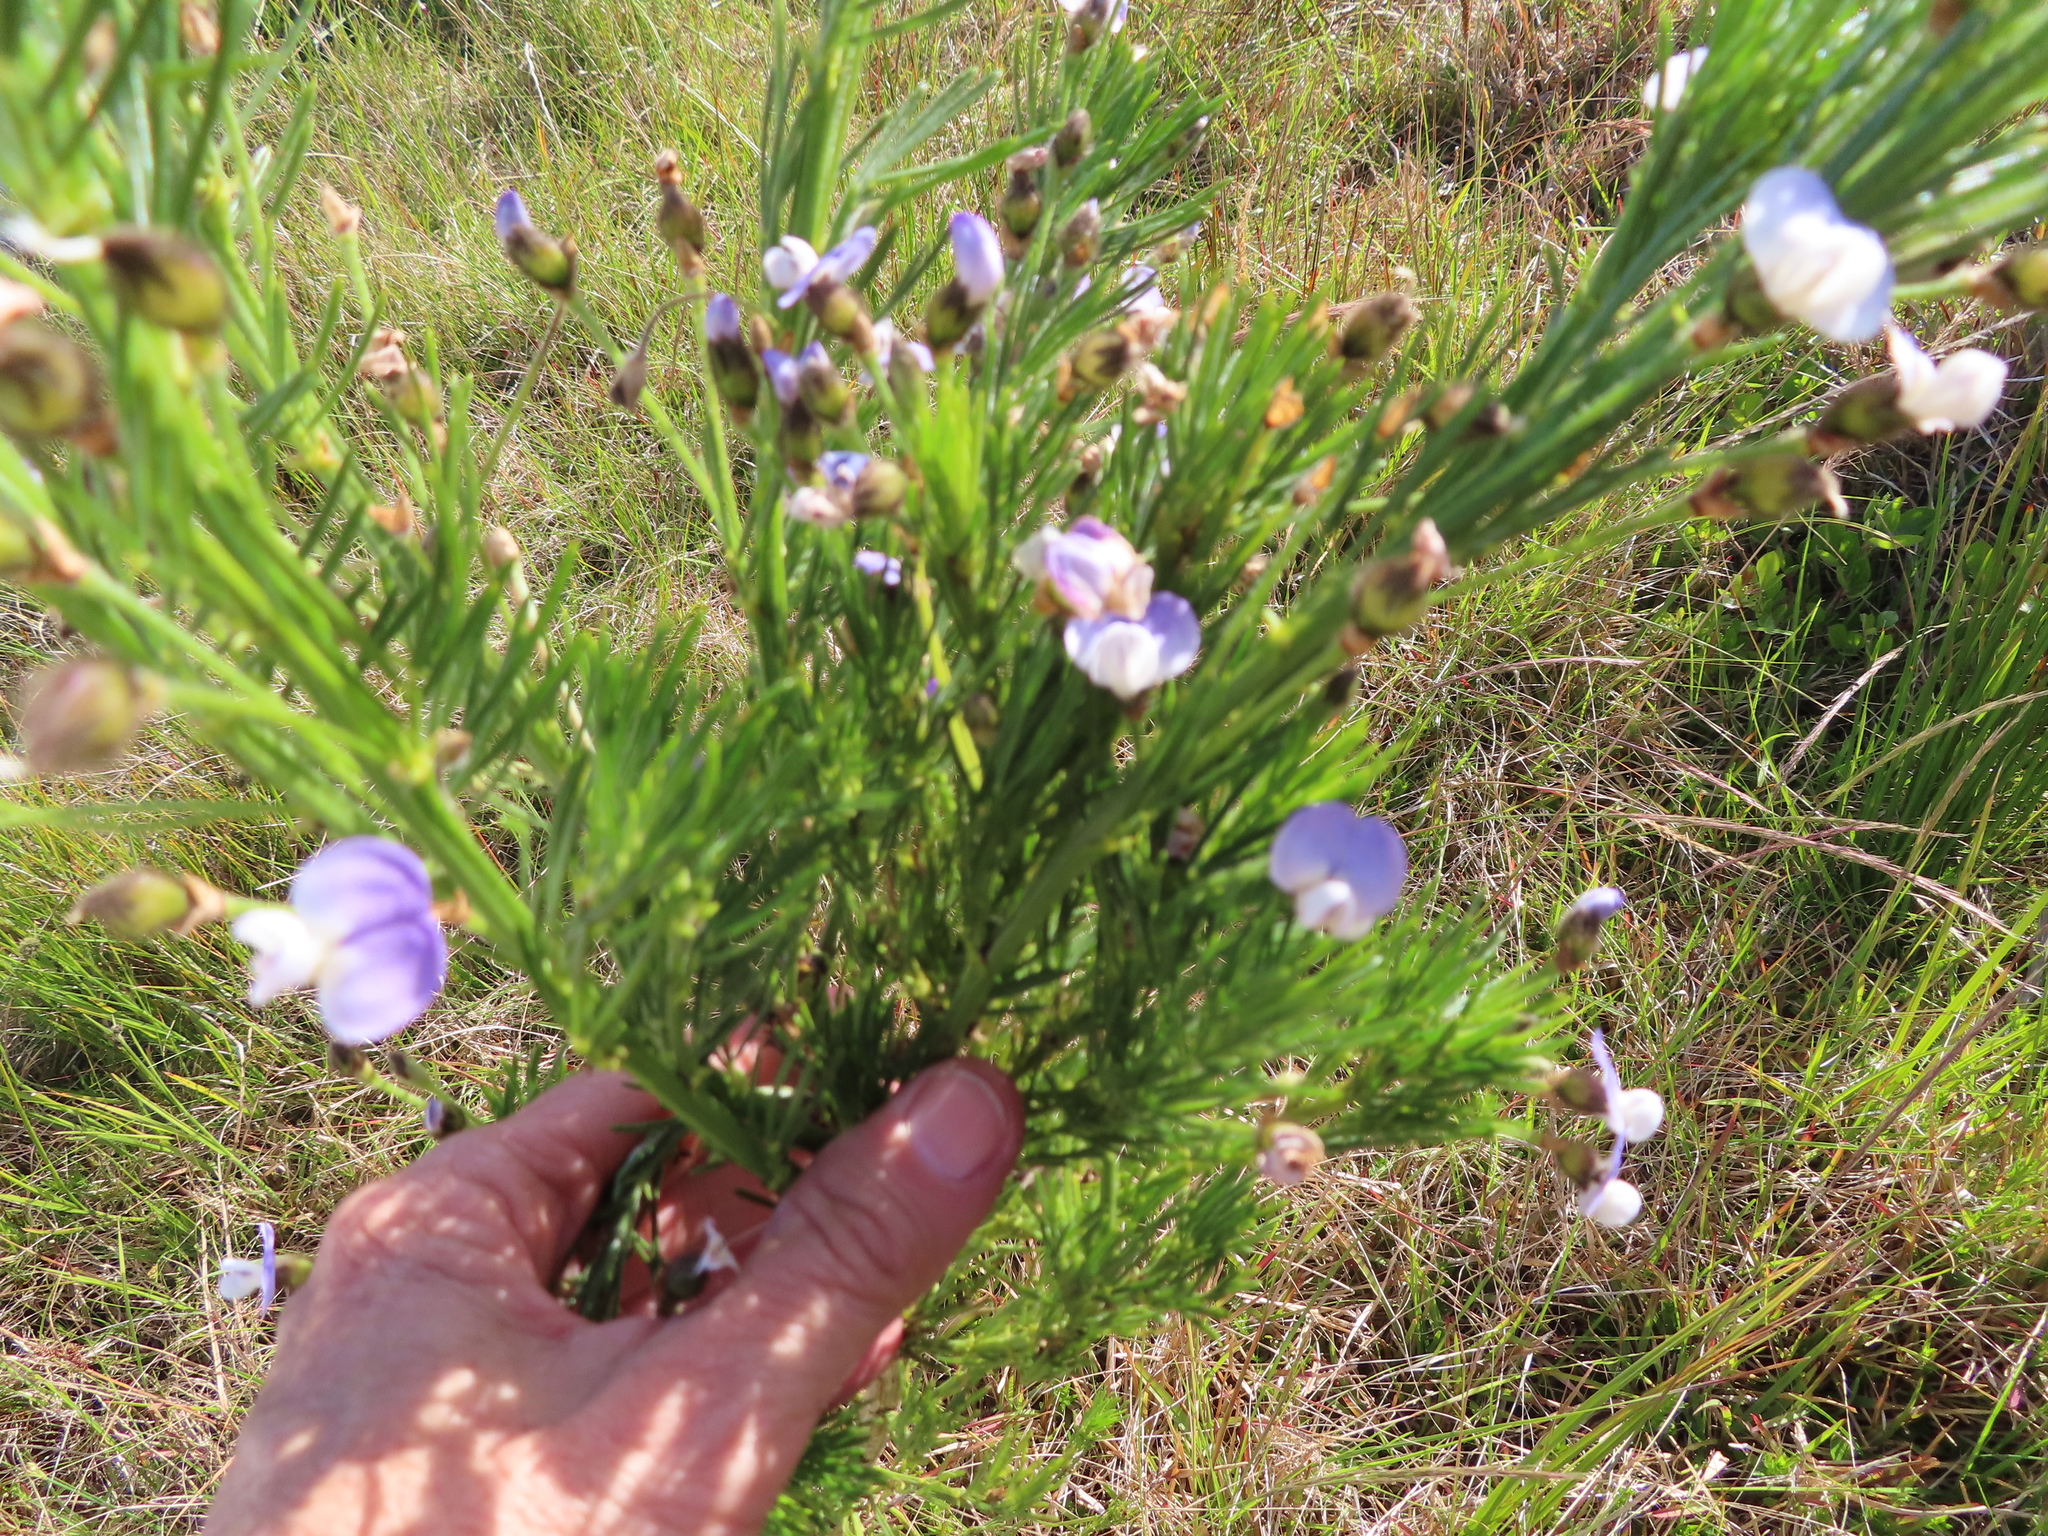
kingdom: Plantae
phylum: Tracheophyta
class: Magnoliopsida
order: Fabales
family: Fabaceae
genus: Psoralea
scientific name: Psoralea arborea
